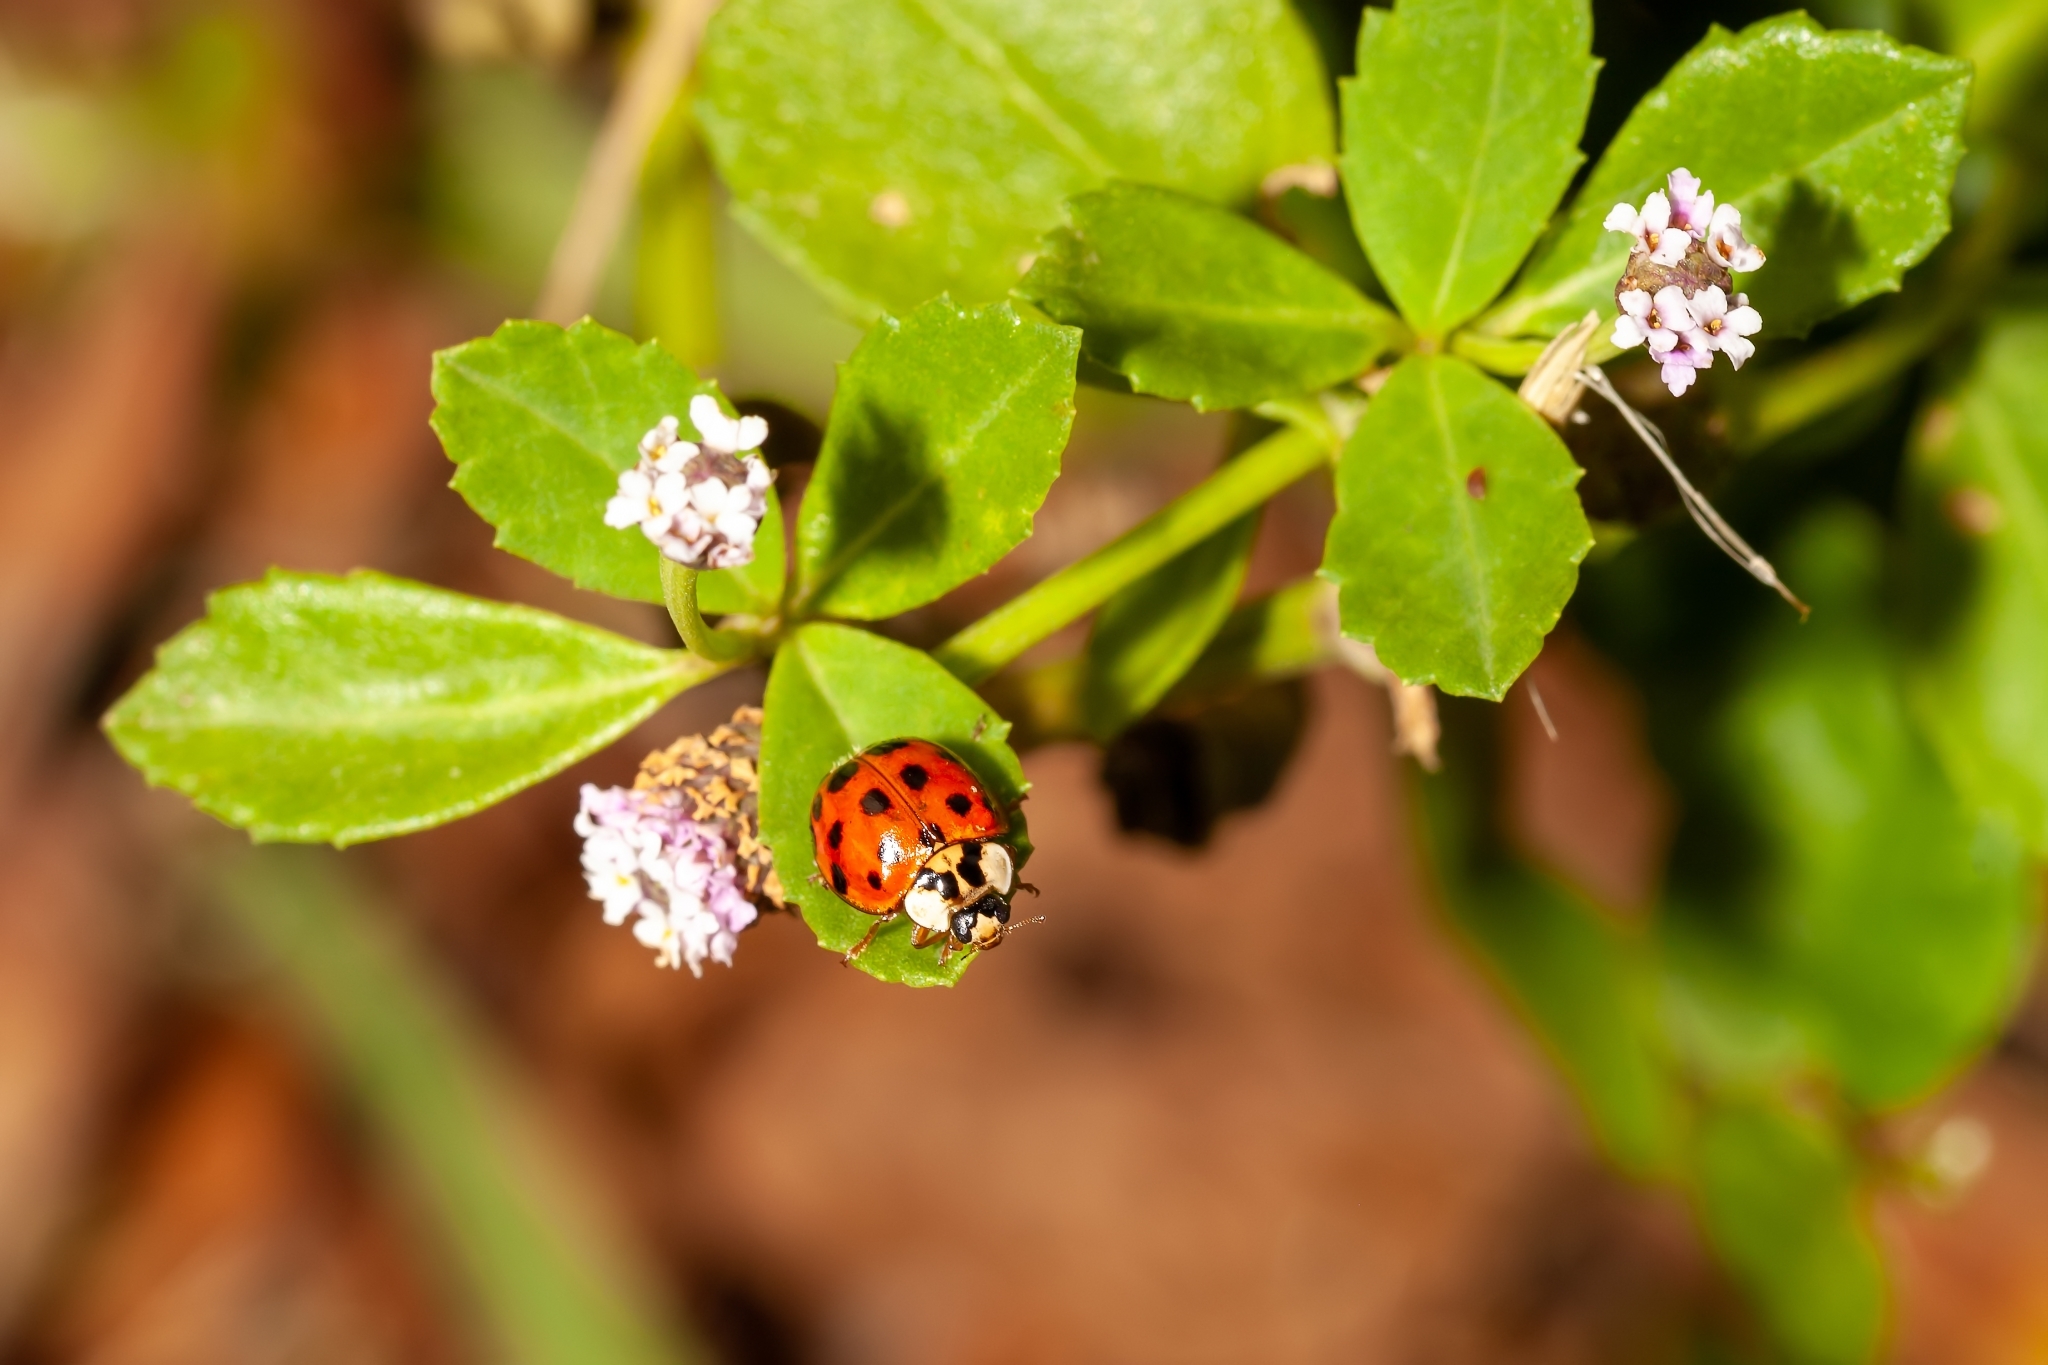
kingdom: Animalia
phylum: Arthropoda
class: Insecta
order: Coleoptera
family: Coccinellidae
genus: Harmonia
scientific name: Harmonia axyridis
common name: Harlequin ladybird
